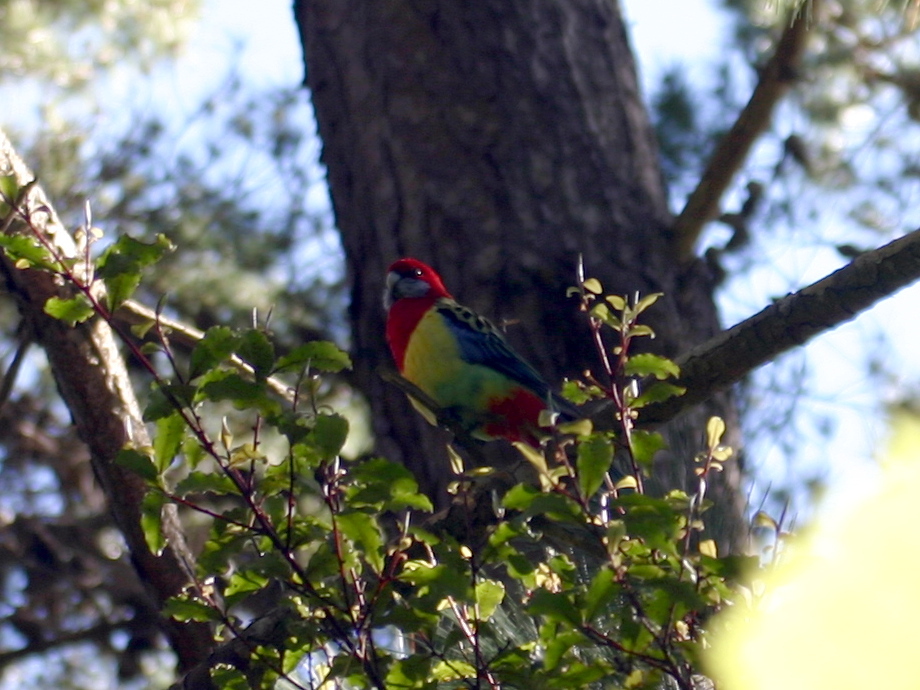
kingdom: Animalia
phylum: Chordata
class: Aves
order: Psittaciformes
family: Psittacidae
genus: Platycercus
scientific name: Platycercus eximius
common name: Eastern rosella
